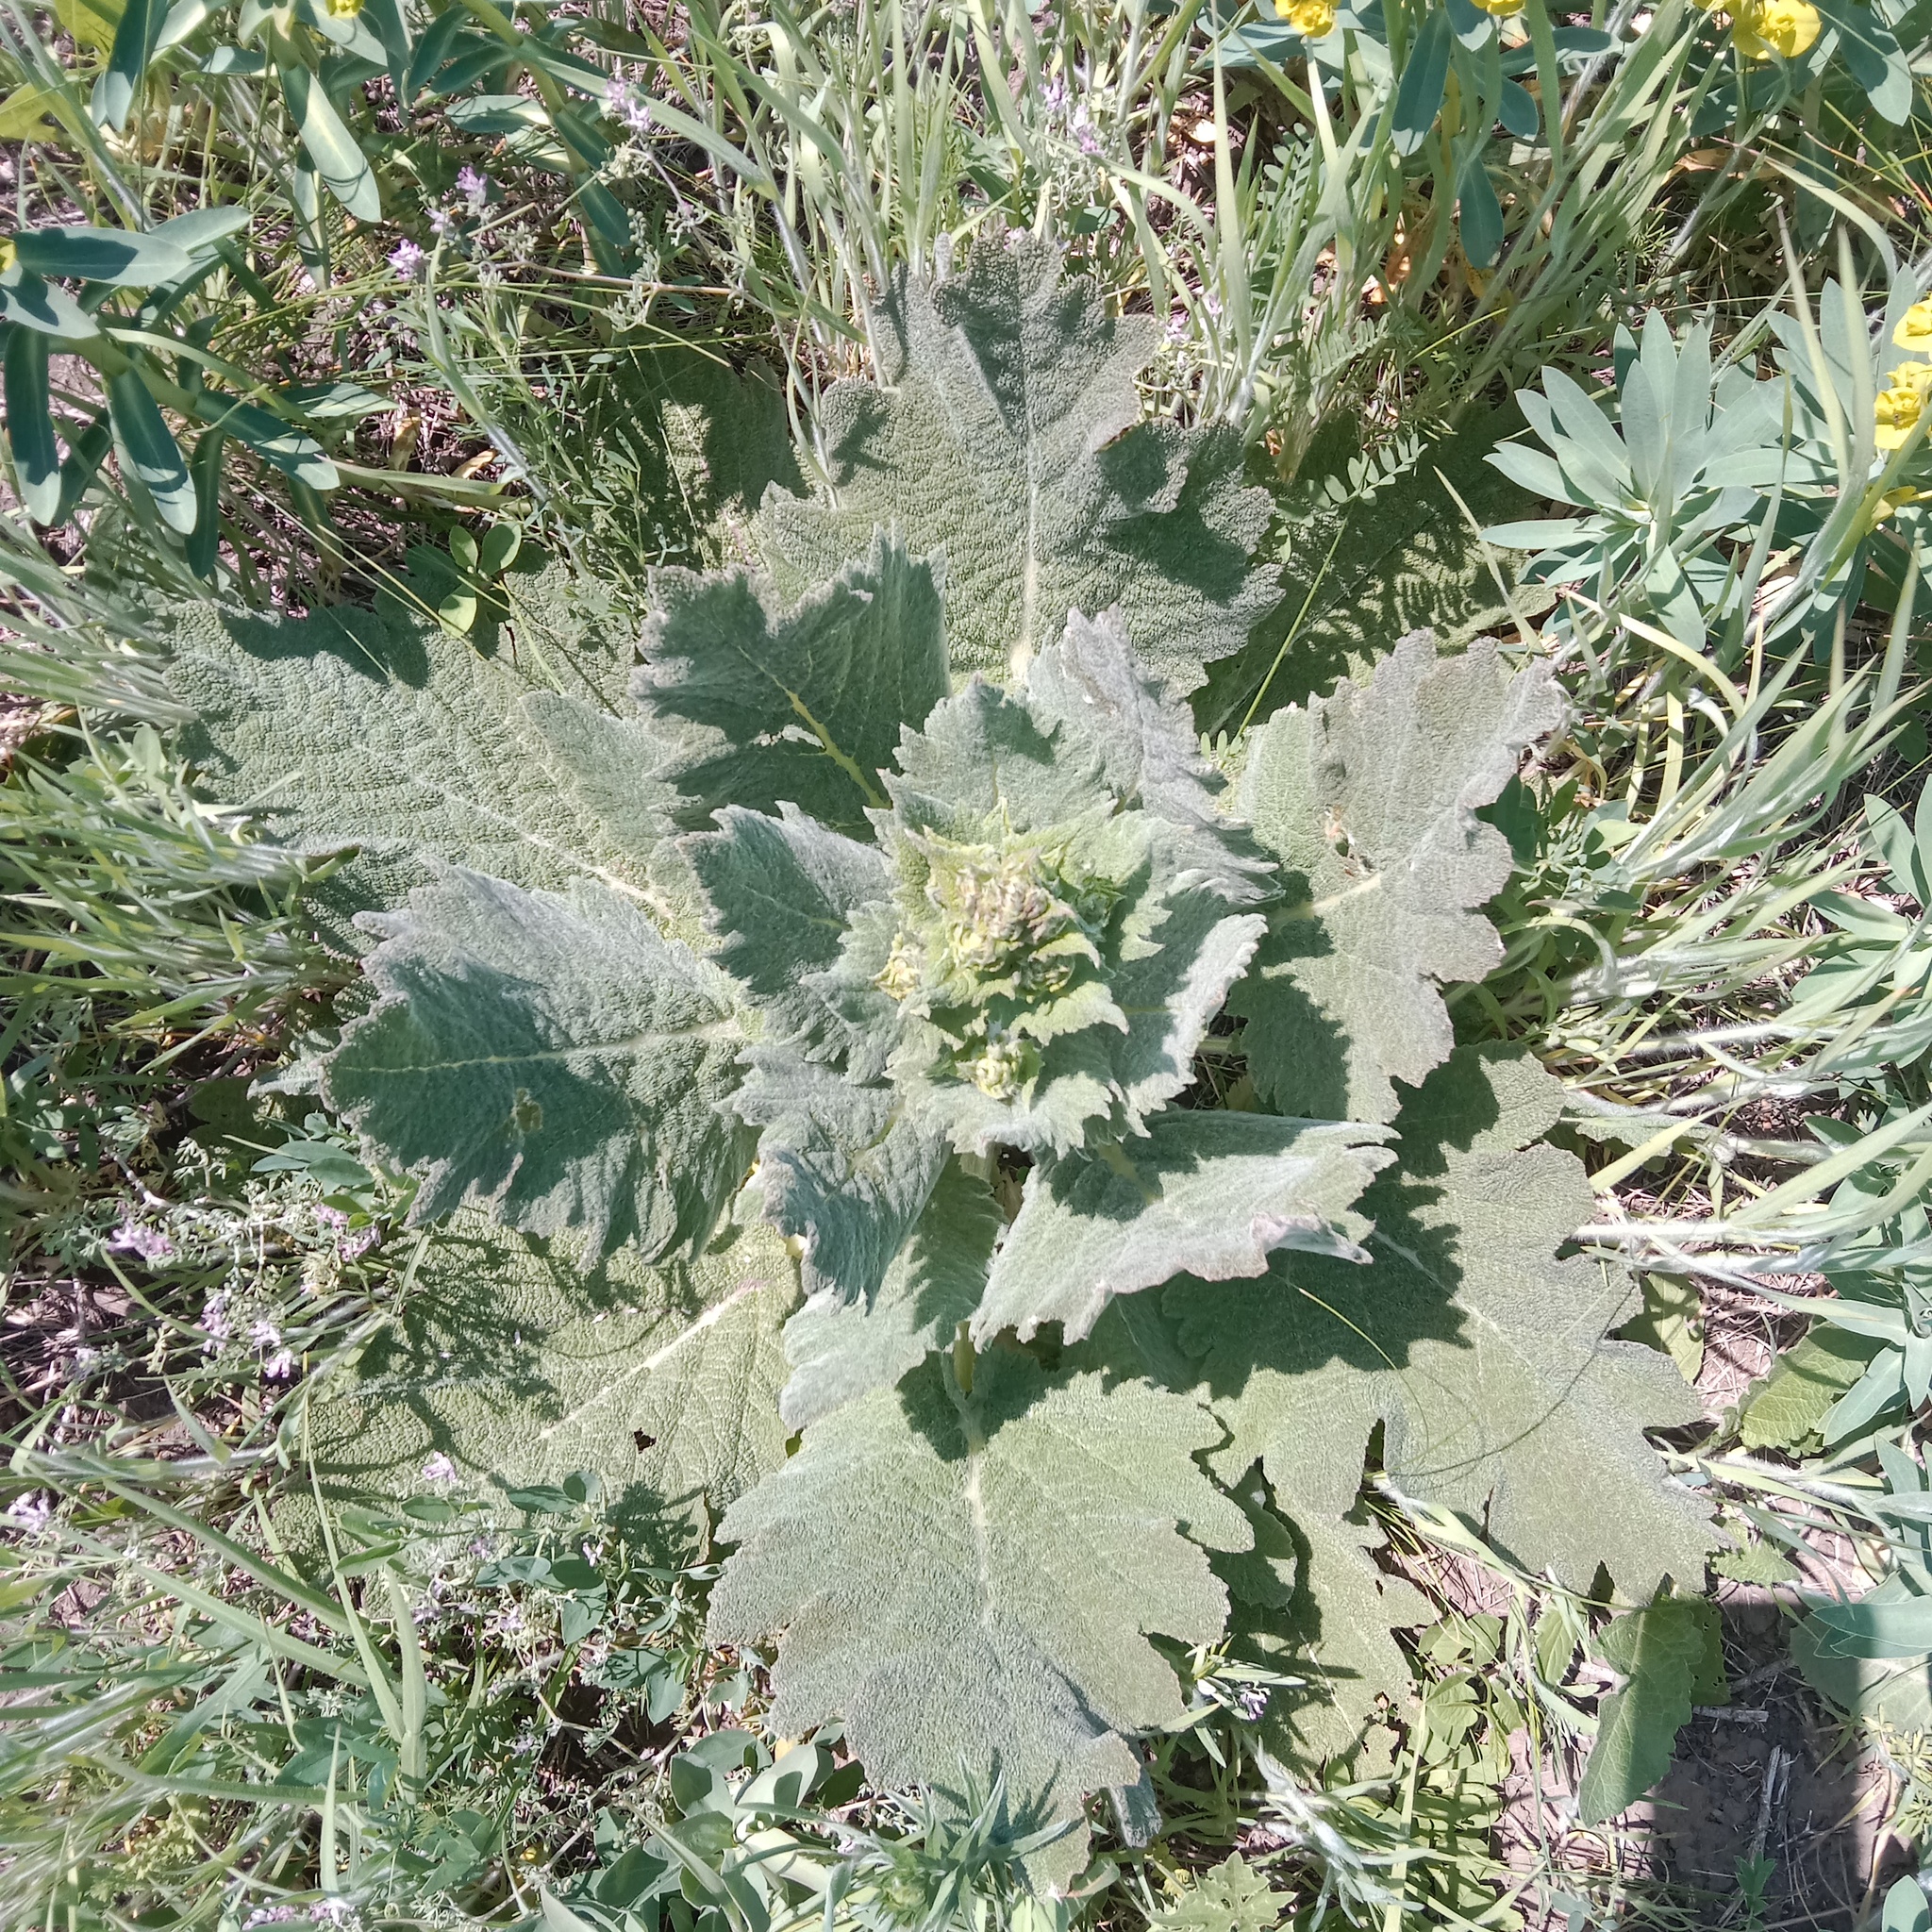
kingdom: Plantae
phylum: Tracheophyta
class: Magnoliopsida
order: Lamiales
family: Lamiaceae
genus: Salvia
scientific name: Salvia aethiopis
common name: Mediterranean sage
